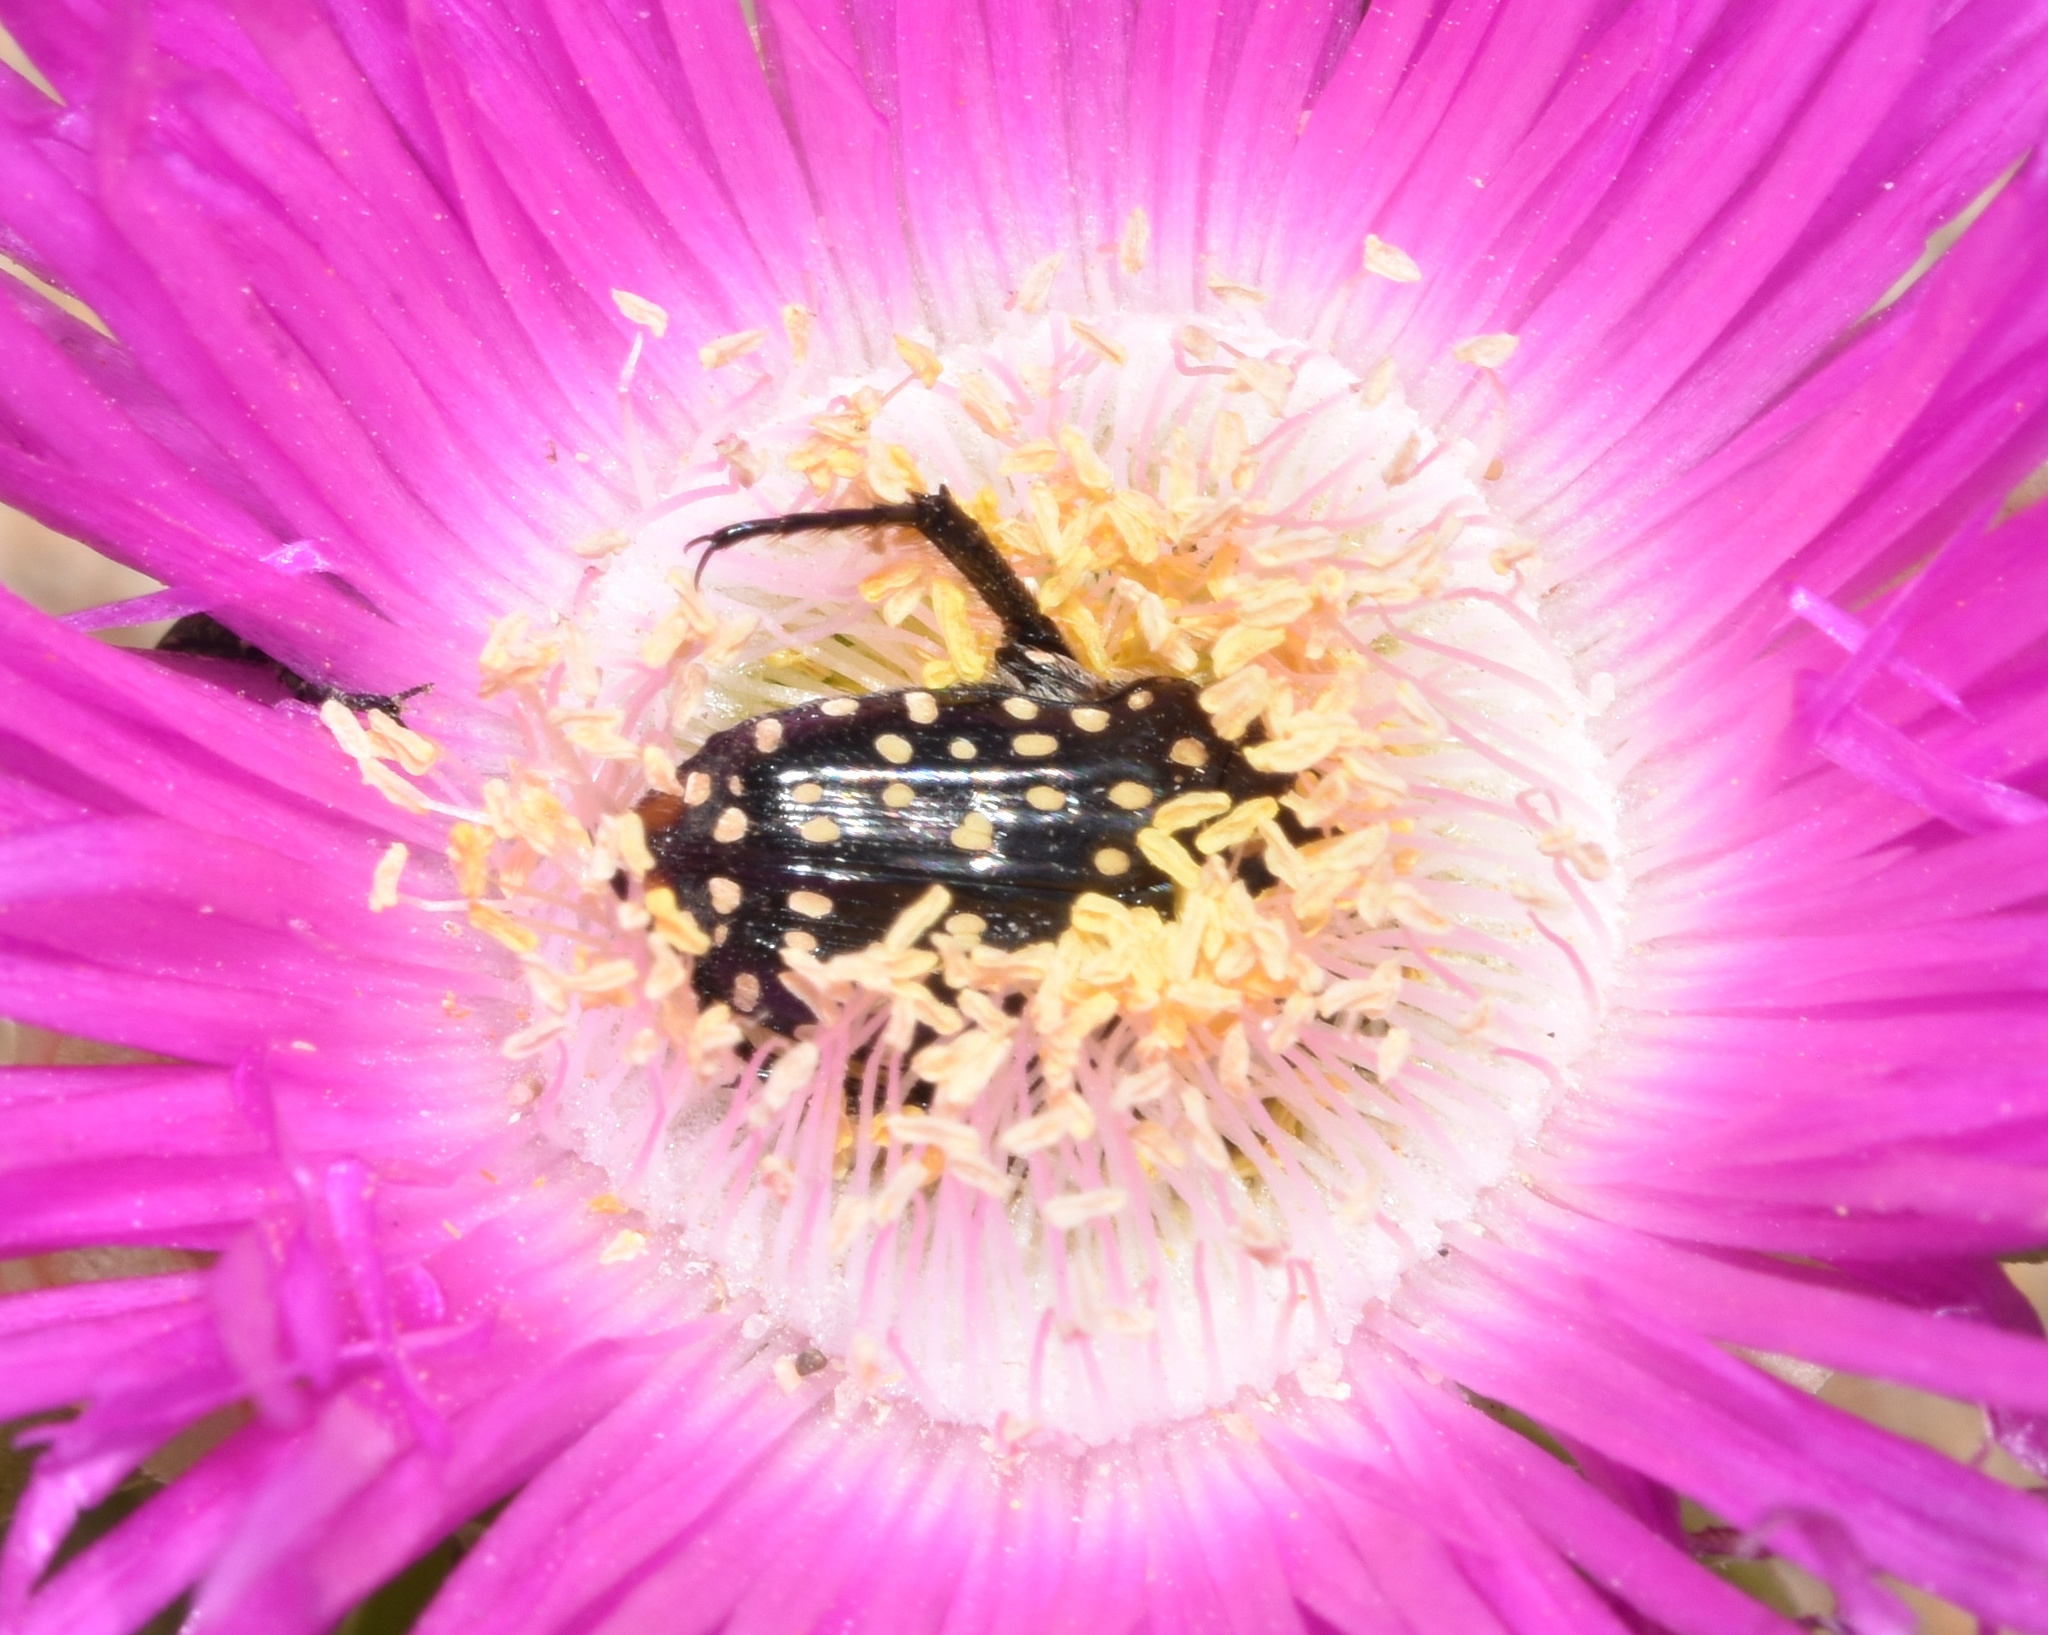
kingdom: Animalia
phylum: Arthropoda
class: Insecta
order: Coleoptera
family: Scarabaeidae
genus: Oxythyrea
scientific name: Oxythyrea
